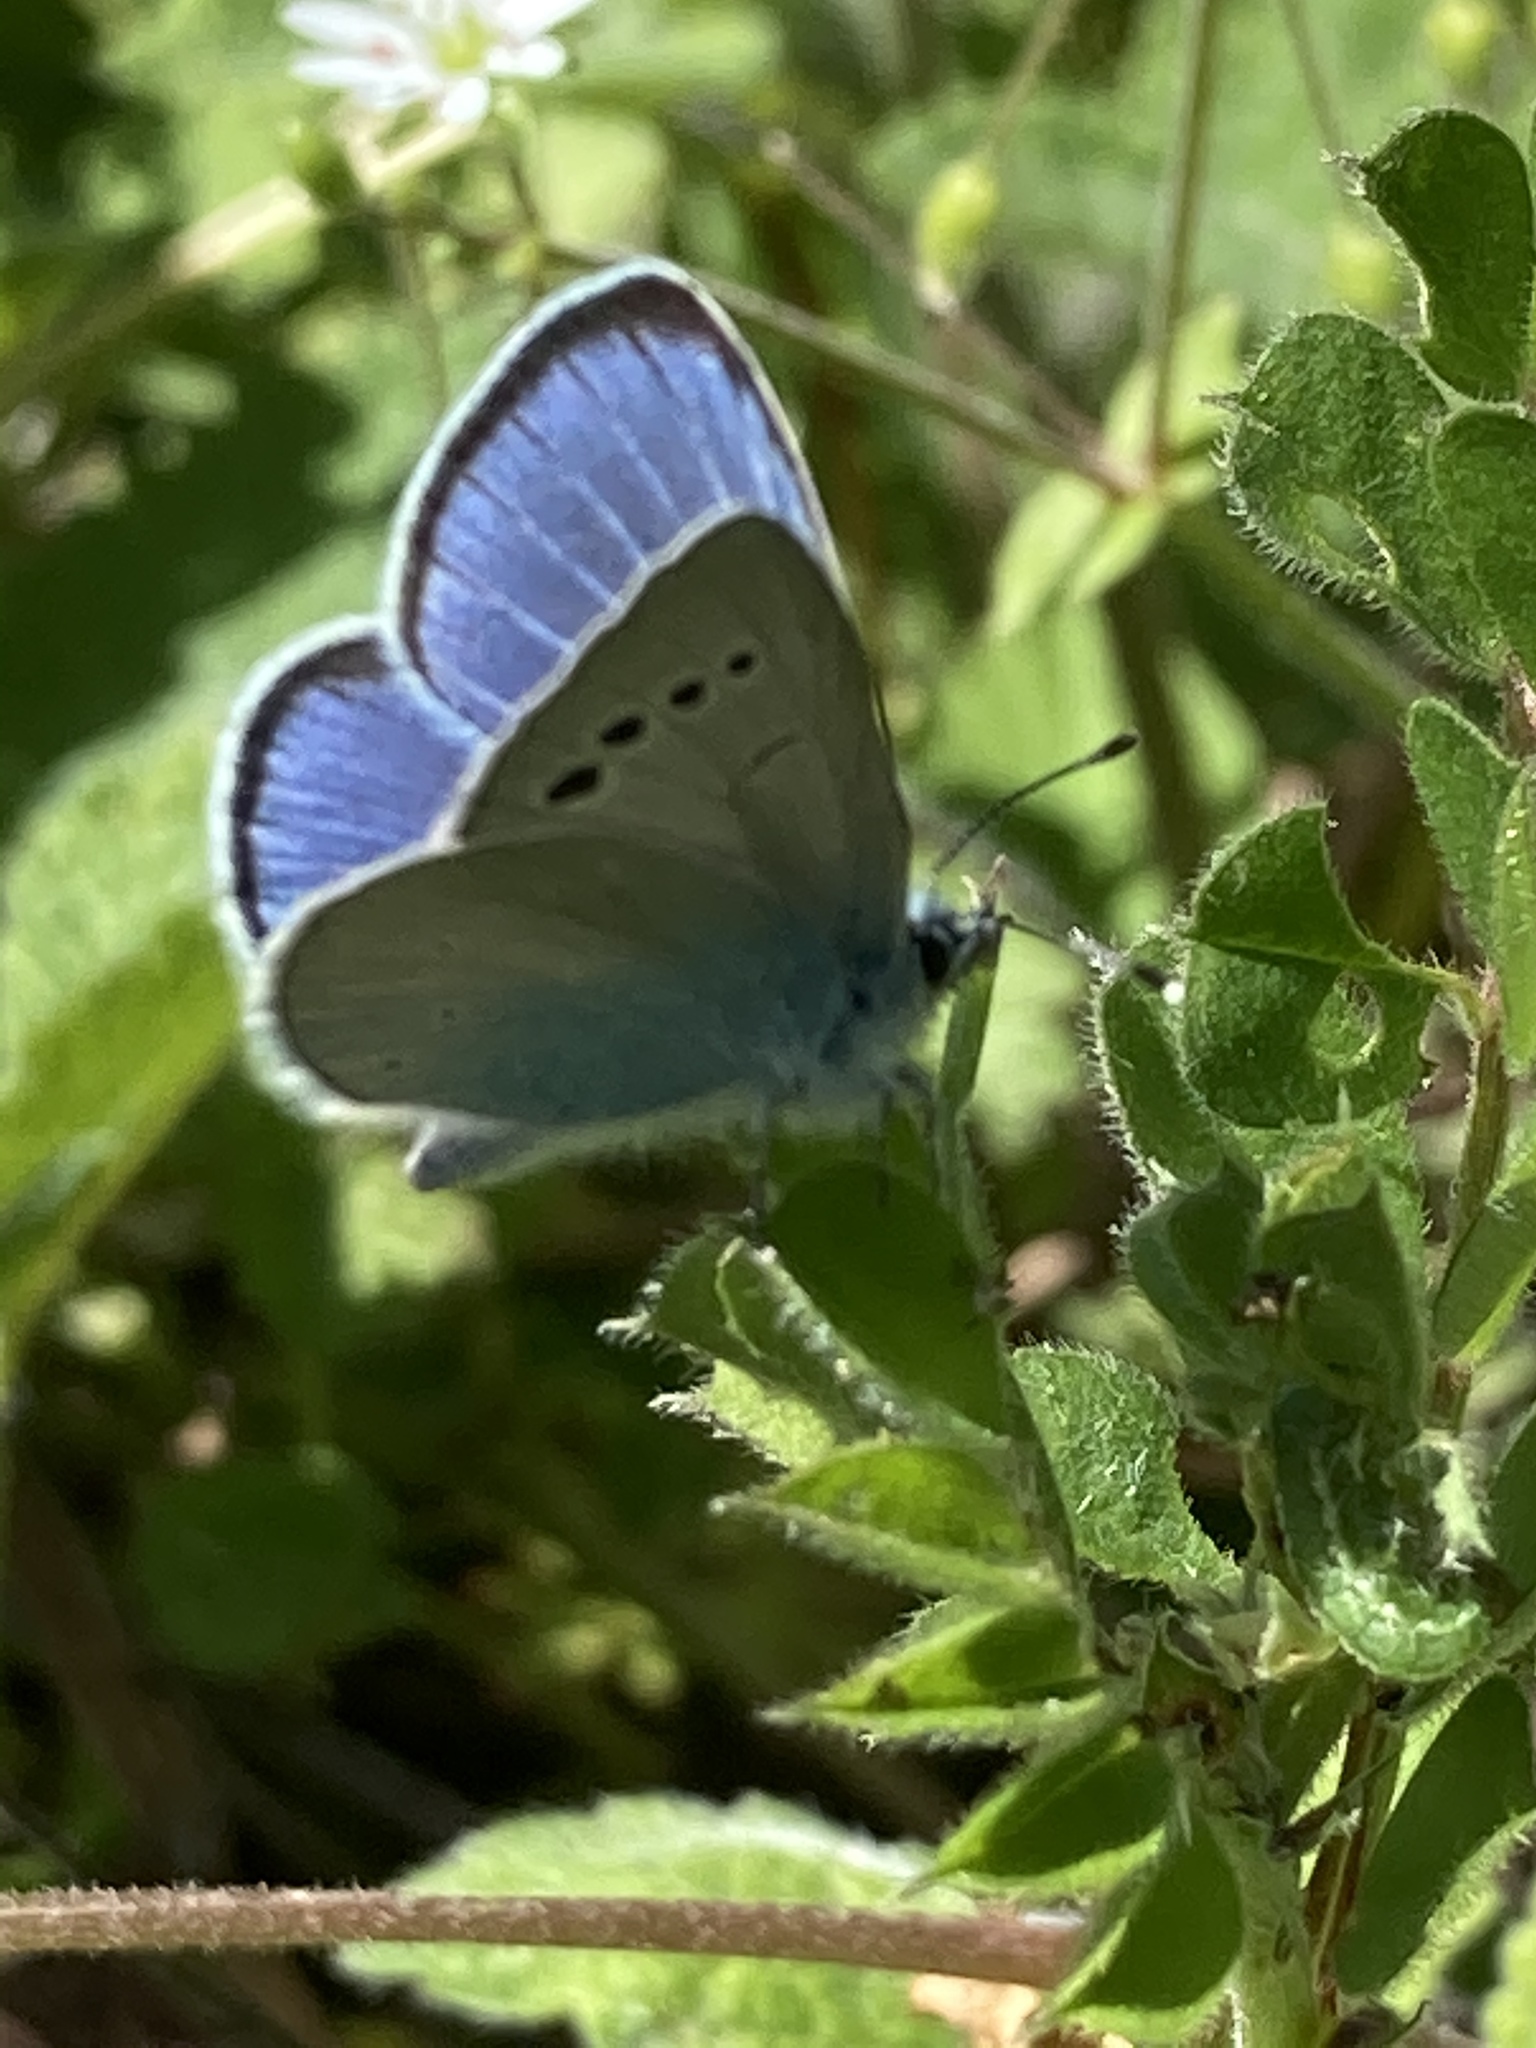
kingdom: Animalia
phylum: Arthropoda
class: Insecta
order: Lepidoptera
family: Lycaenidae
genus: Glaucopsyche
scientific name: Glaucopsyche alexis
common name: Green-underside blue
